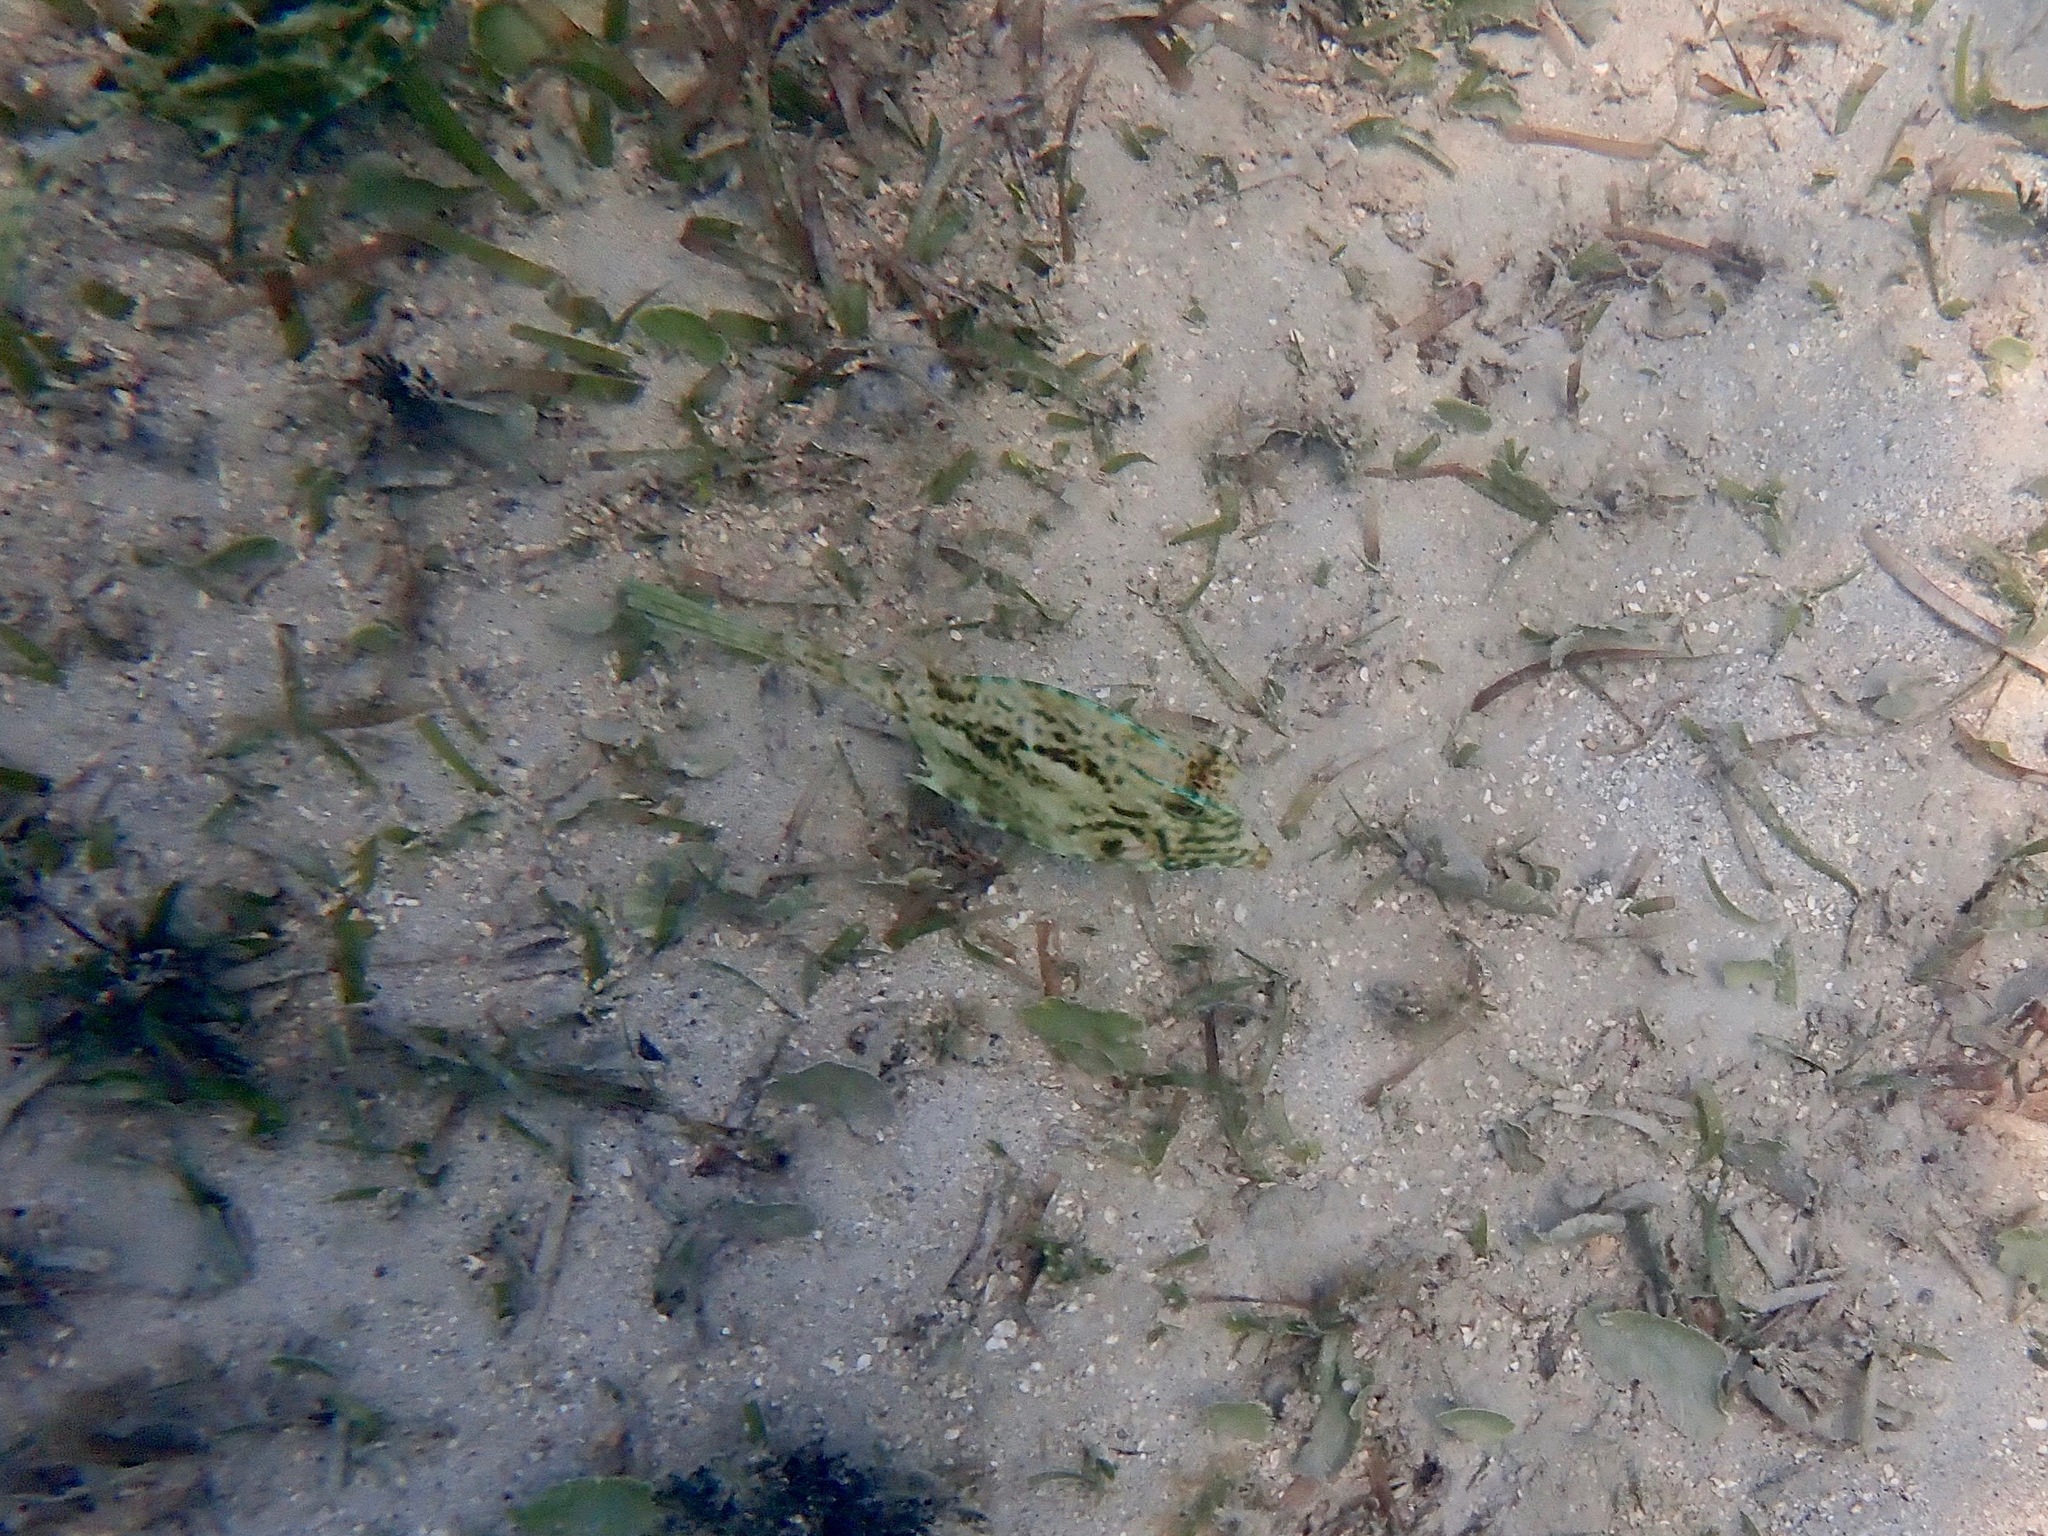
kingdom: Animalia
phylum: Chordata
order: Tetraodontiformes
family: Ostraciidae
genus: Acanthostracion
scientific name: Acanthostracion quadricornis
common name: Scrawled cowfish
